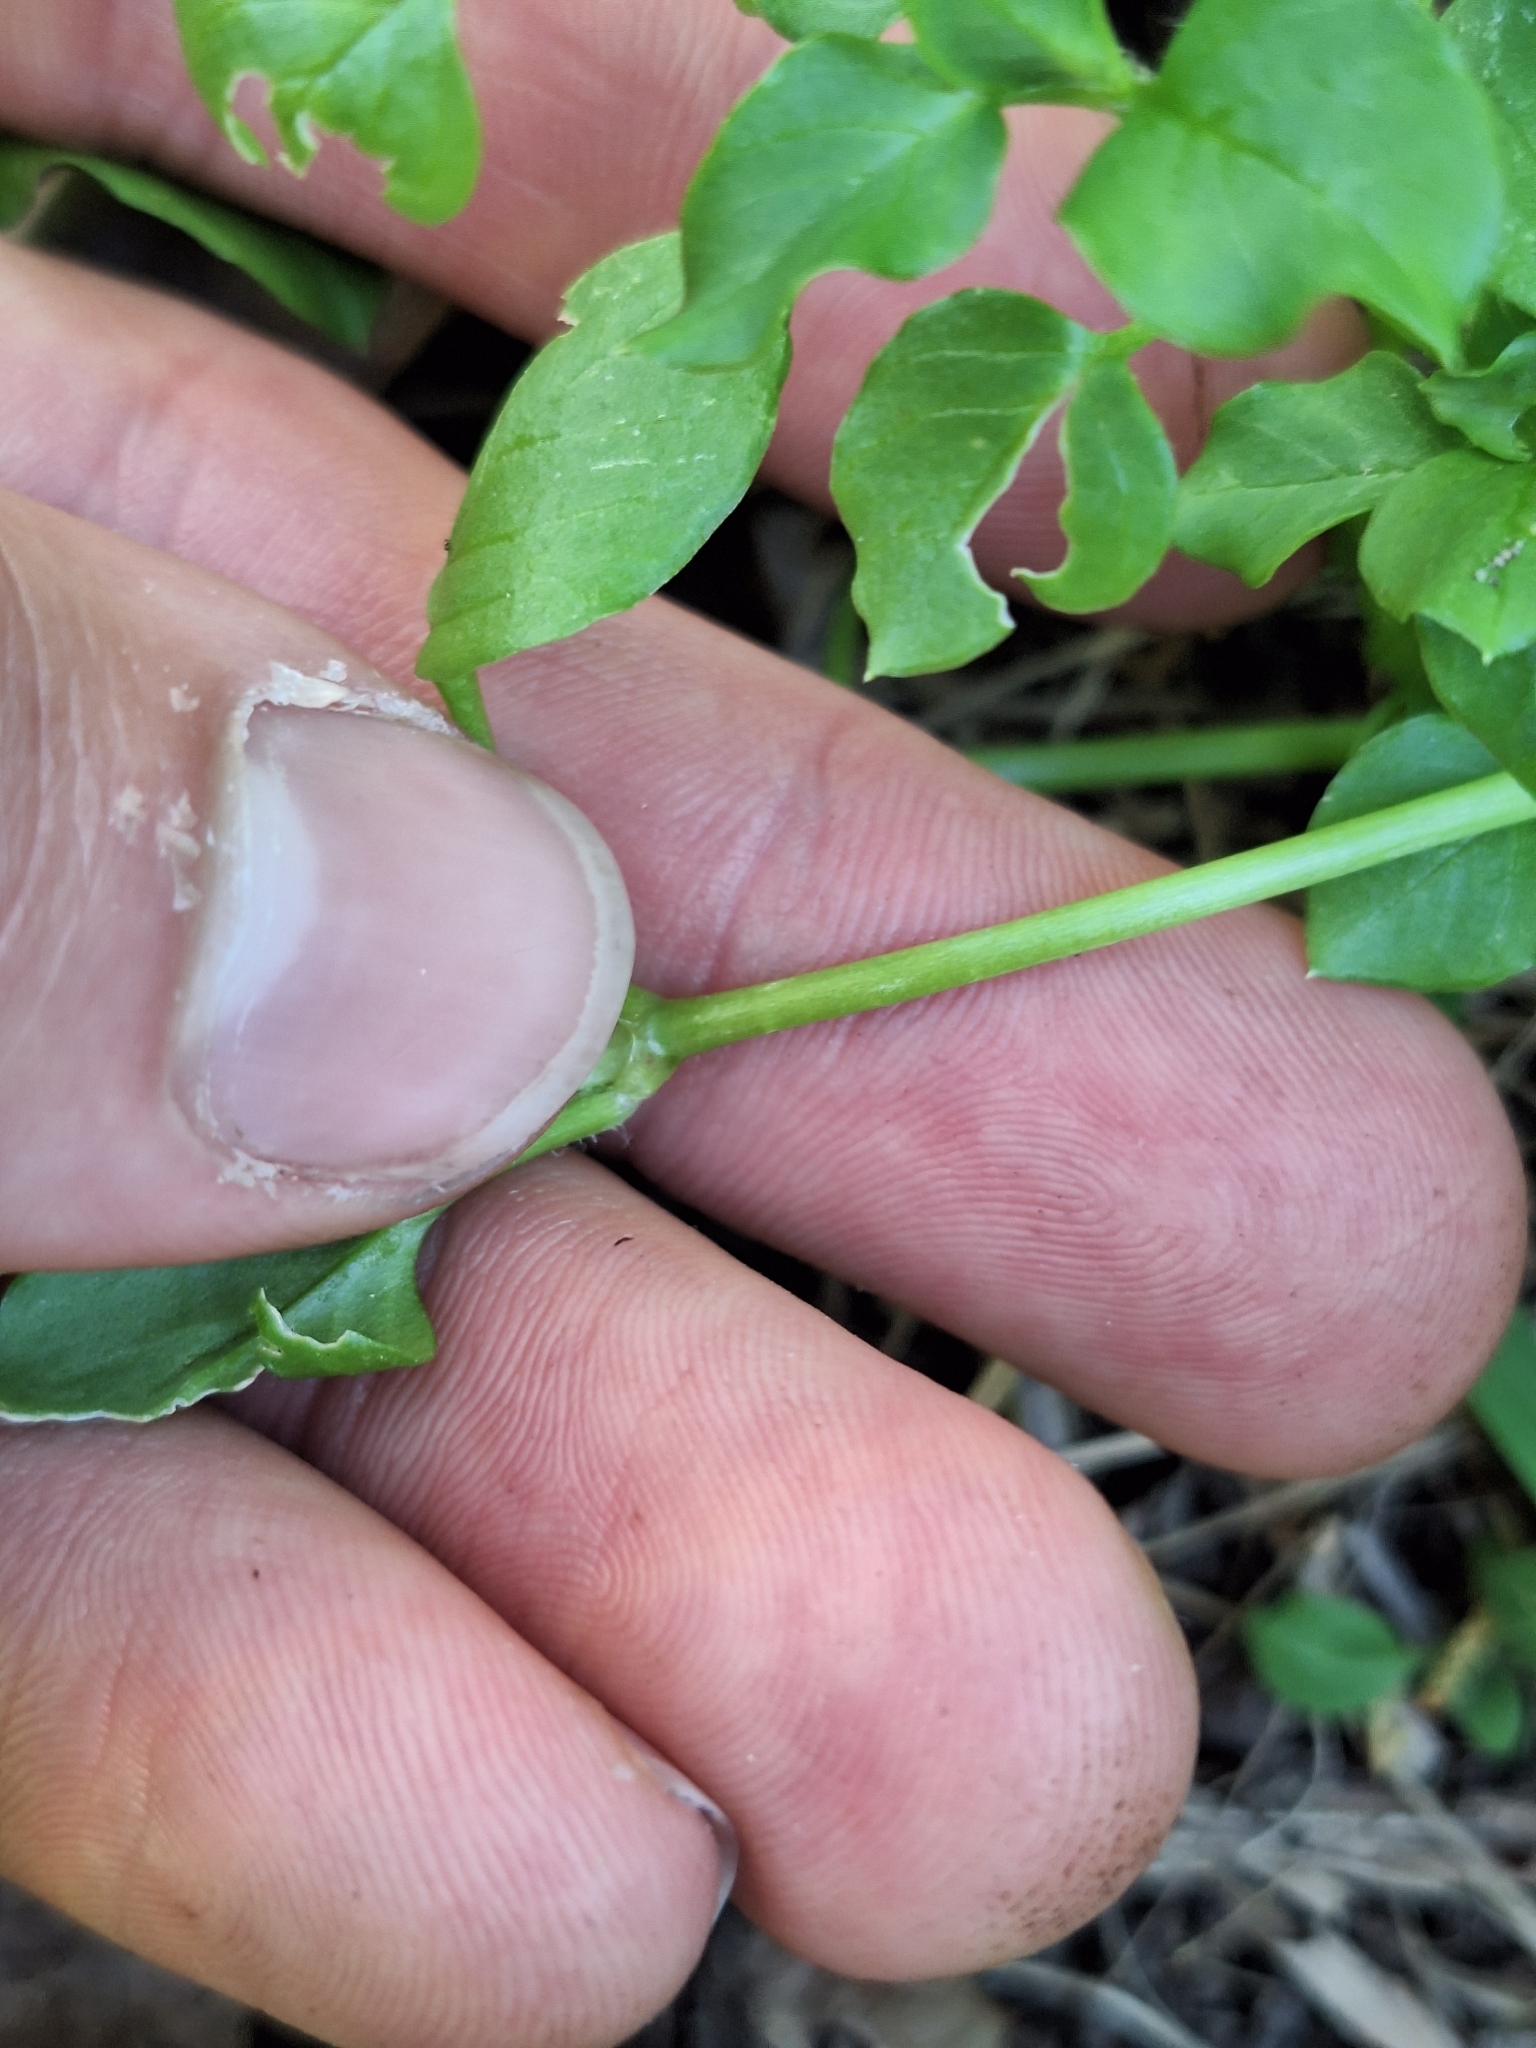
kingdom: Plantae
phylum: Tracheophyta
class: Magnoliopsida
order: Caryophyllales
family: Caryophyllaceae
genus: Stellaria
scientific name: Stellaria media
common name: Common chickweed
